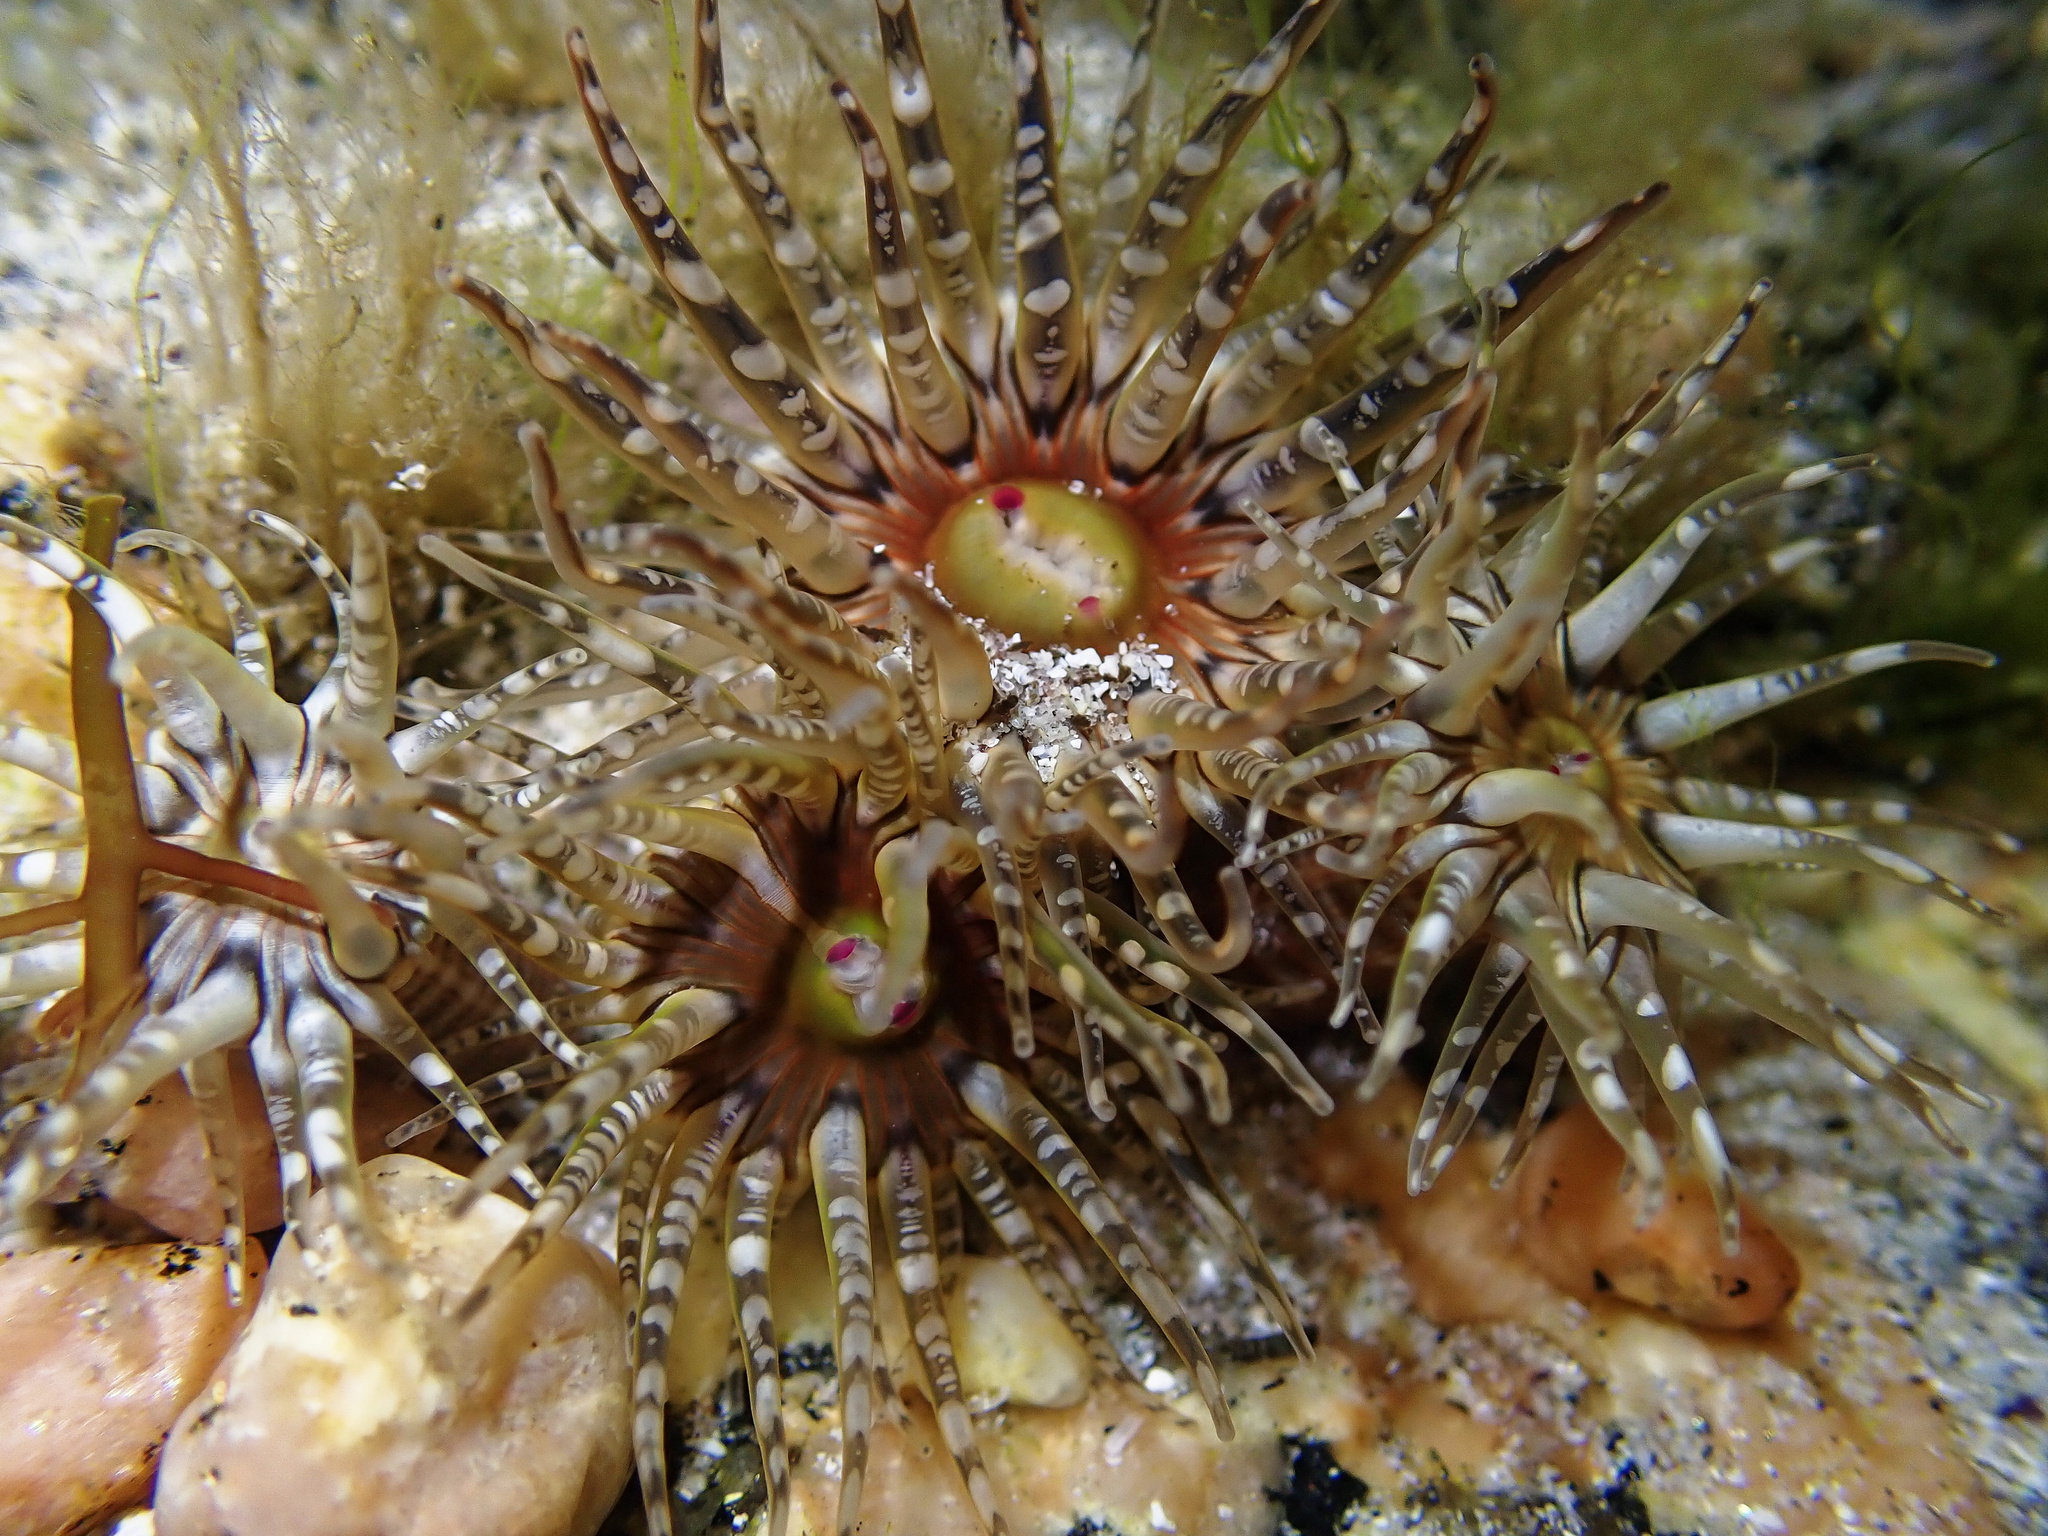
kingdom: Animalia
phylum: Cnidaria
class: Anthozoa
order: Actiniaria
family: Actiniidae
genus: Bunodactis
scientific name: Bunodactis verrucosa
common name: Gem anemone
